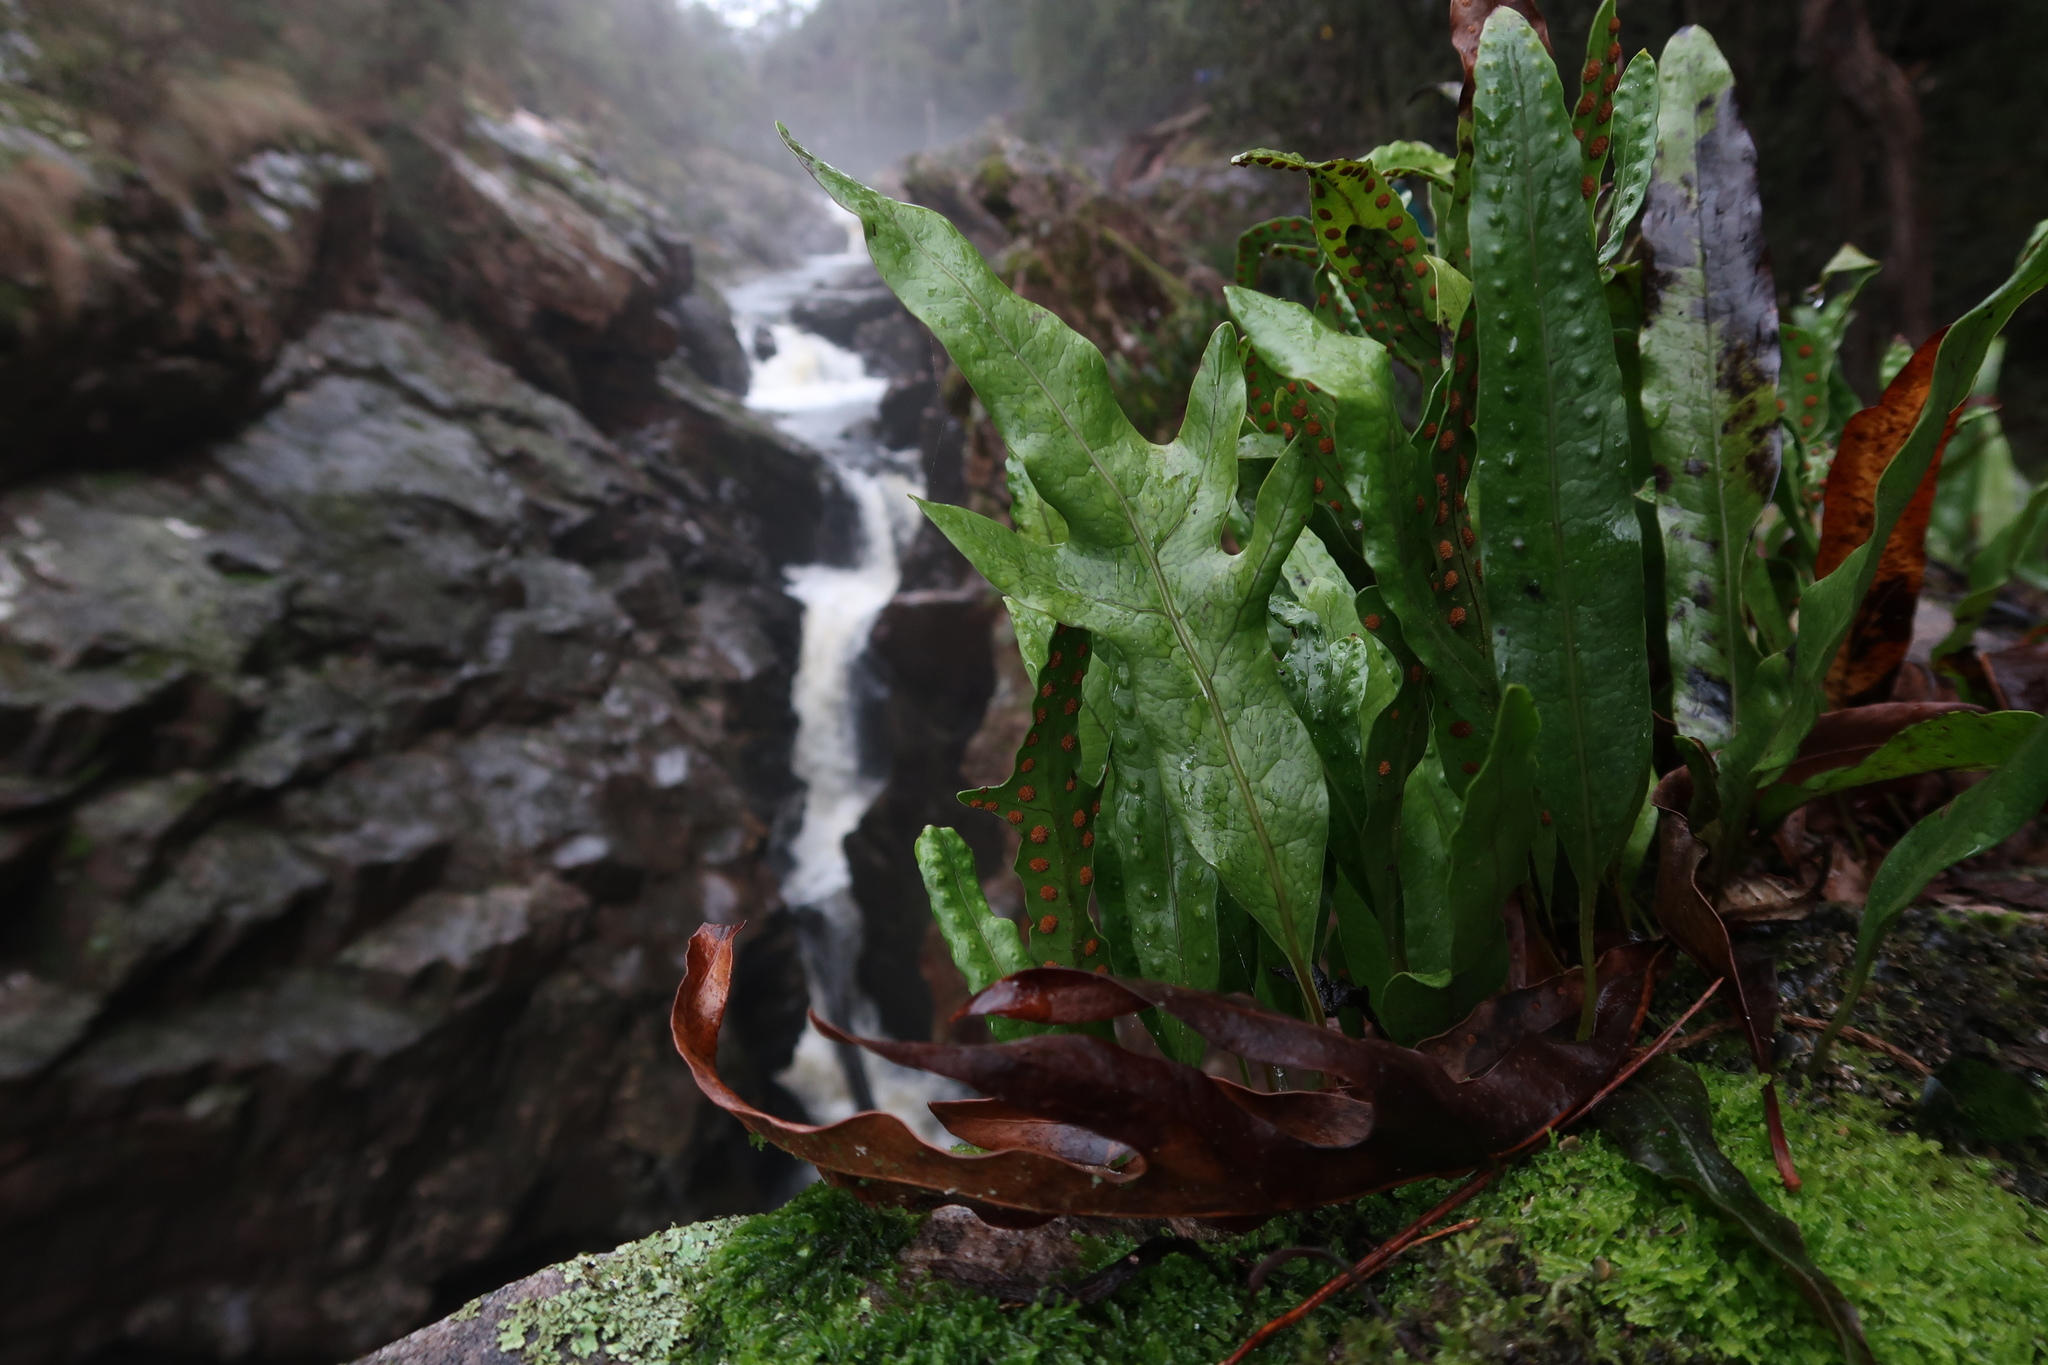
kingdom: Plantae
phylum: Tracheophyta
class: Polypodiopsida
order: Polypodiales
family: Polypodiaceae
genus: Lecanopteris
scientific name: Lecanopteris pustulata
